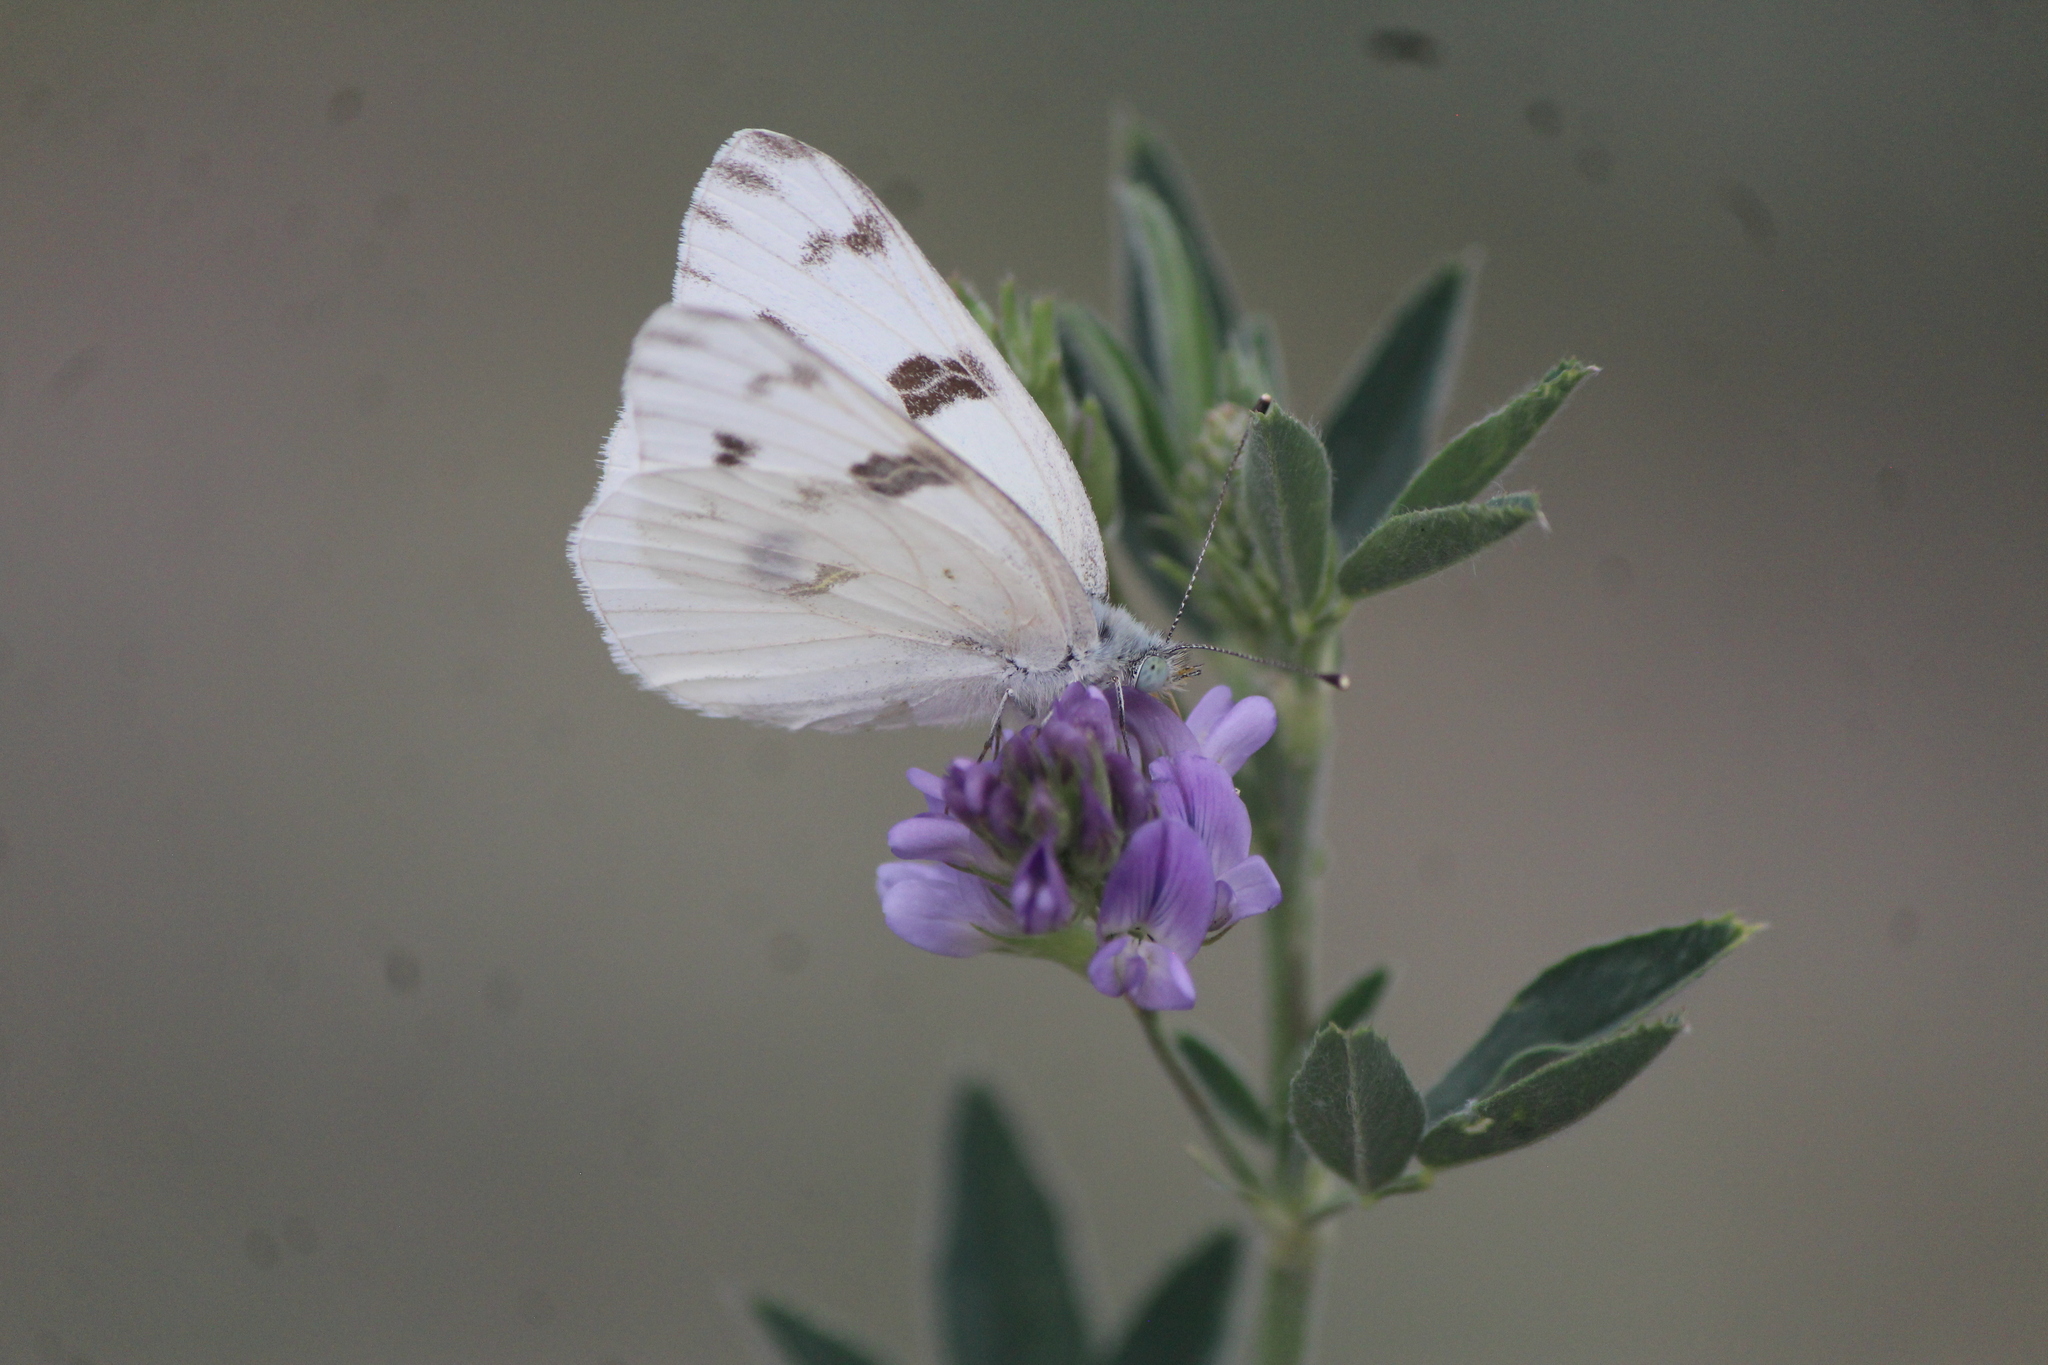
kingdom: Animalia
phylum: Arthropoda
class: Insecta
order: Lepidoptera
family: Pieridae
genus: Pontia
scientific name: Pontia protodice
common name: Checkered white
